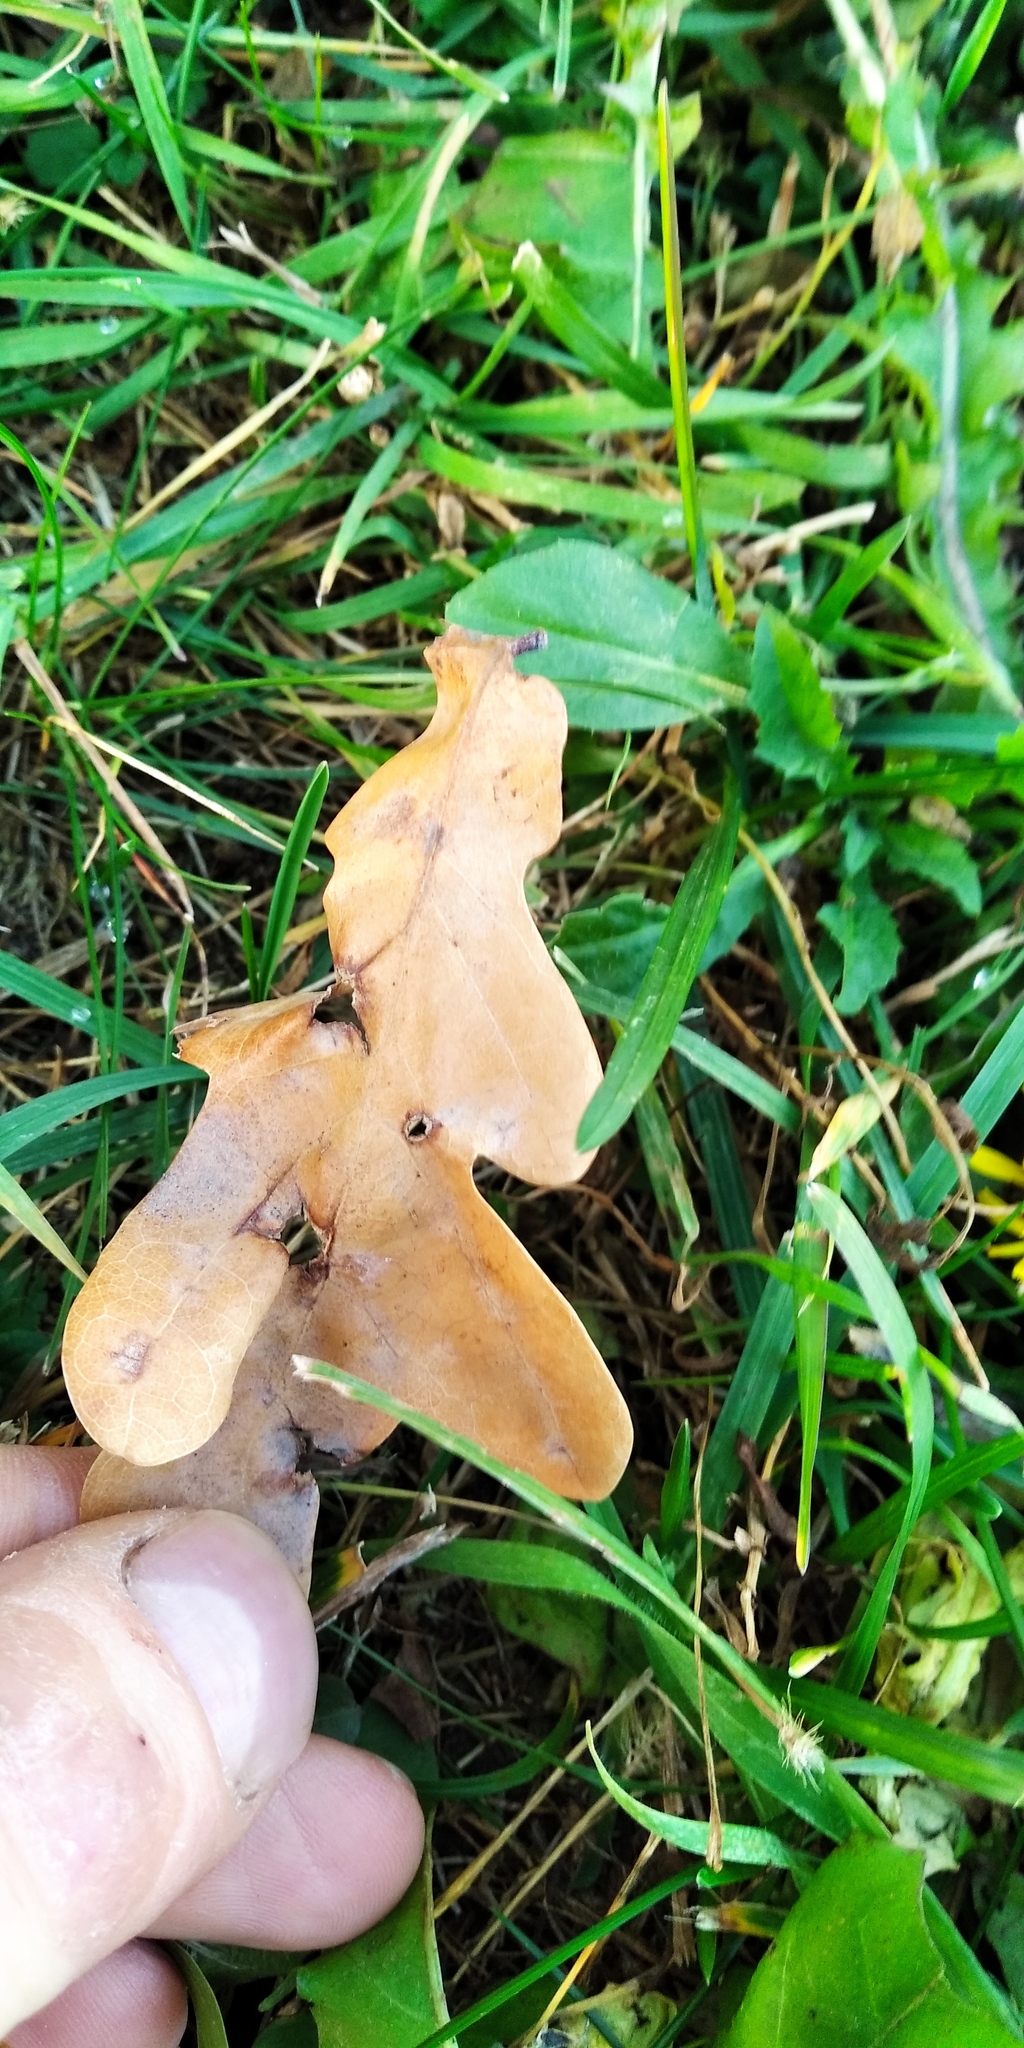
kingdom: Plantae
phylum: Tracheophyta
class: Magnoliopsida
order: Fagales
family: Fagaceae
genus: Quercus
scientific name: Quercus robur
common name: Pedunculate oak
